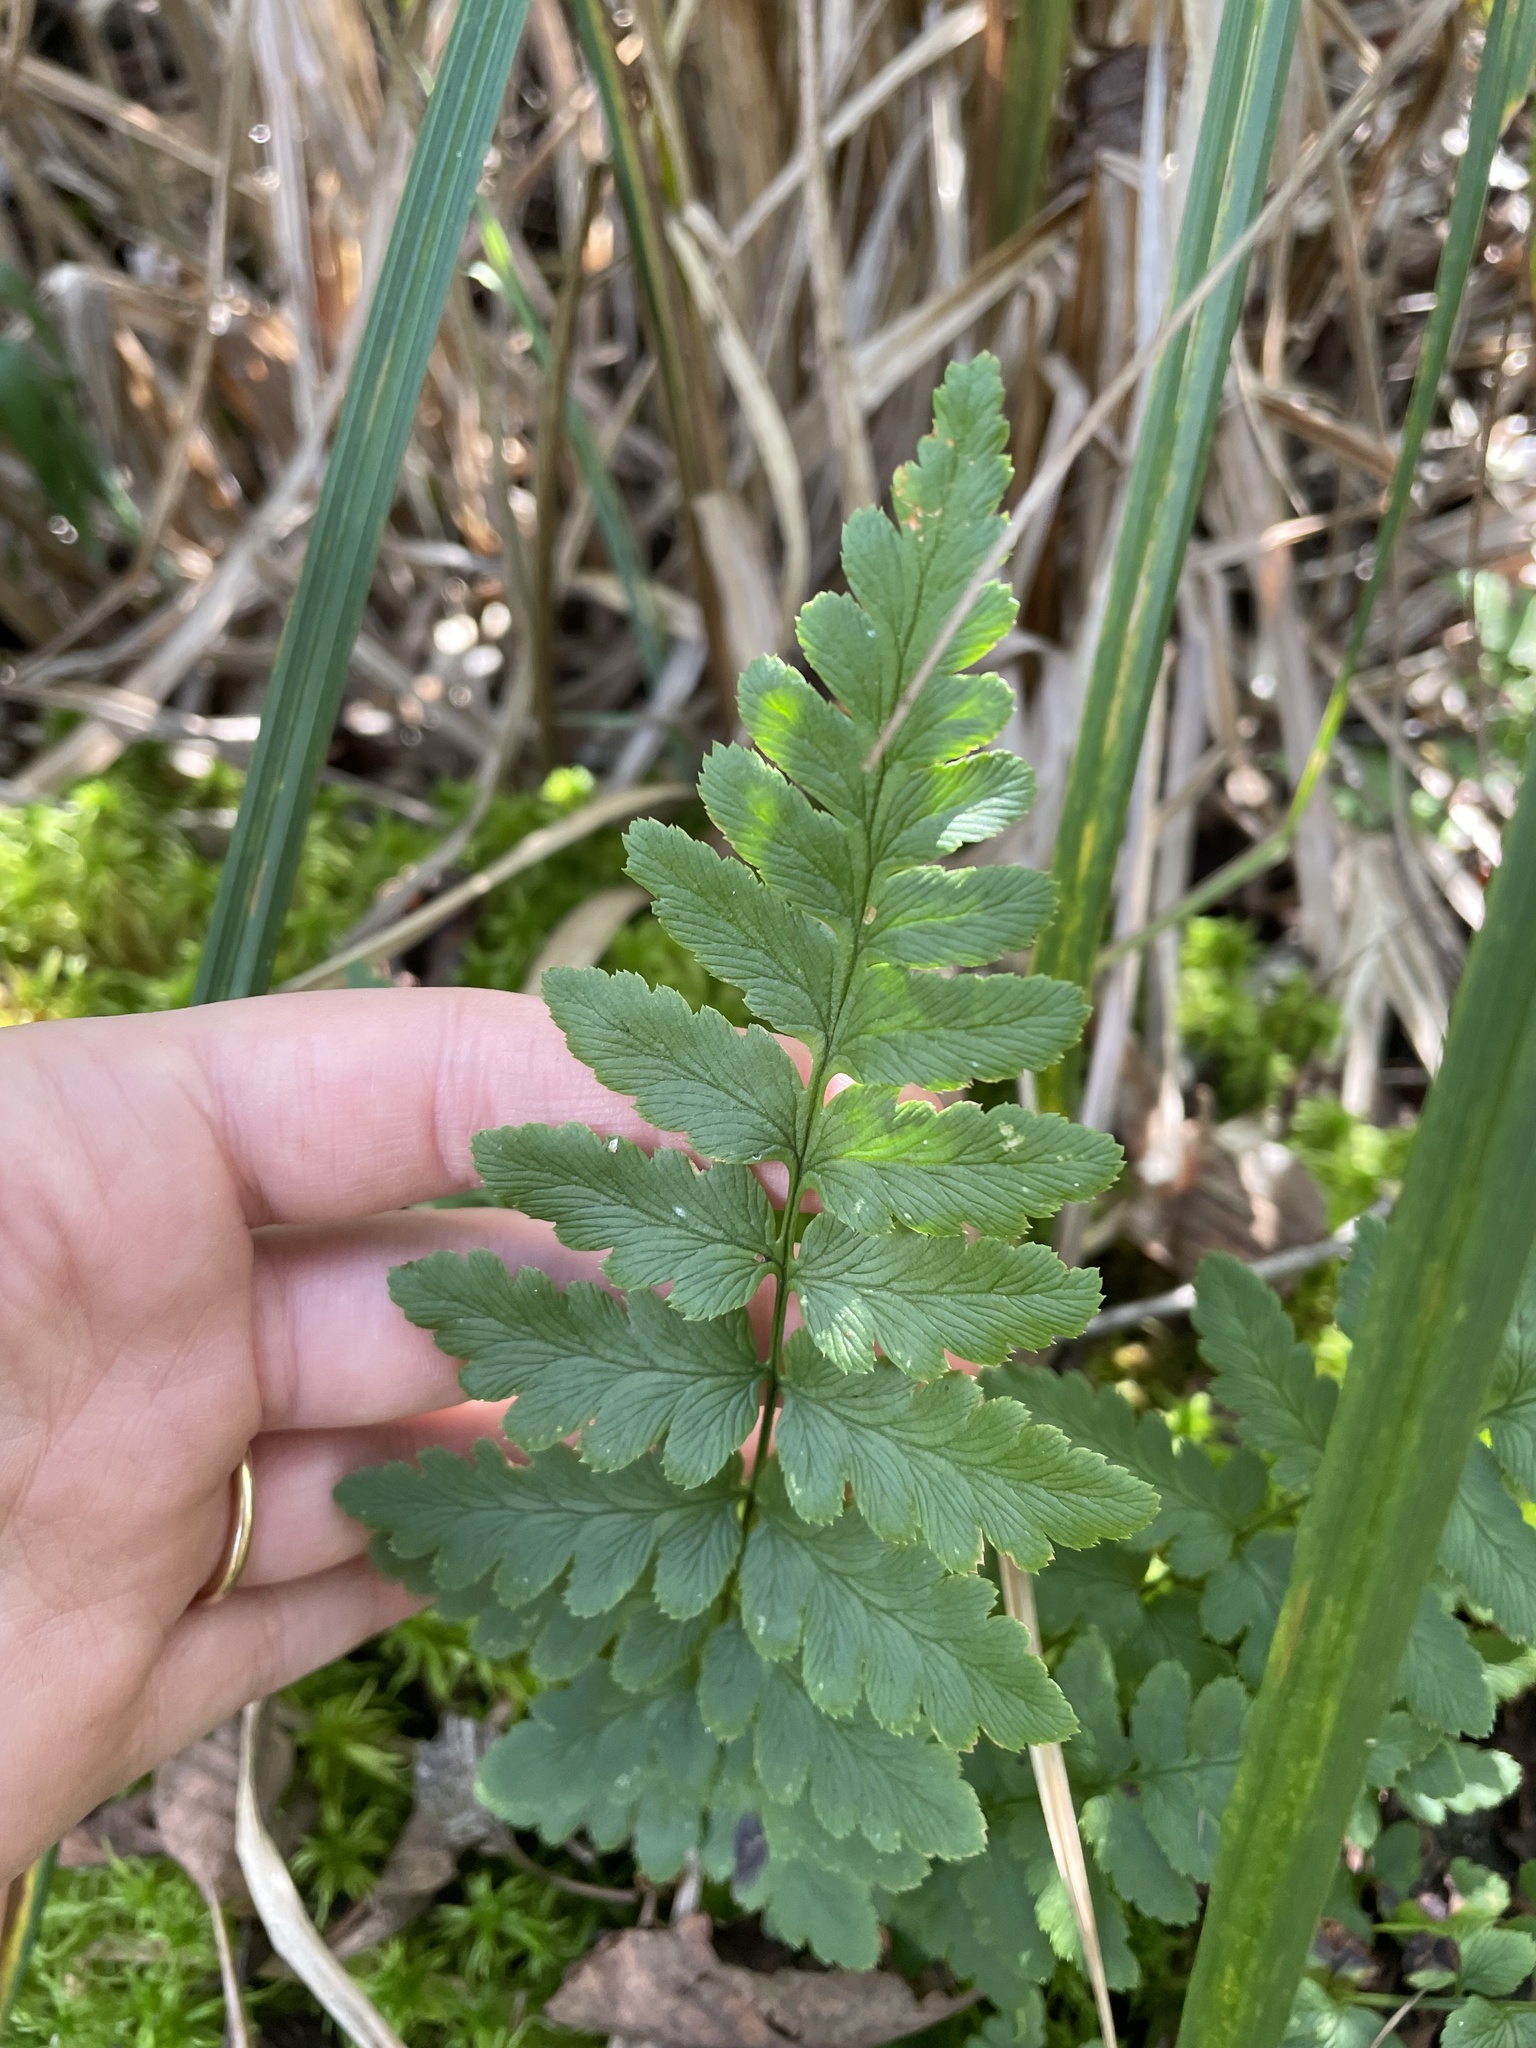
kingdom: Plantae
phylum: Tracheophyta
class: Polypodiopsida
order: Polypodiales
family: Dryopteridaceae
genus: Dryopteris
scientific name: Dryopteris cristata
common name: Crested wood fern
